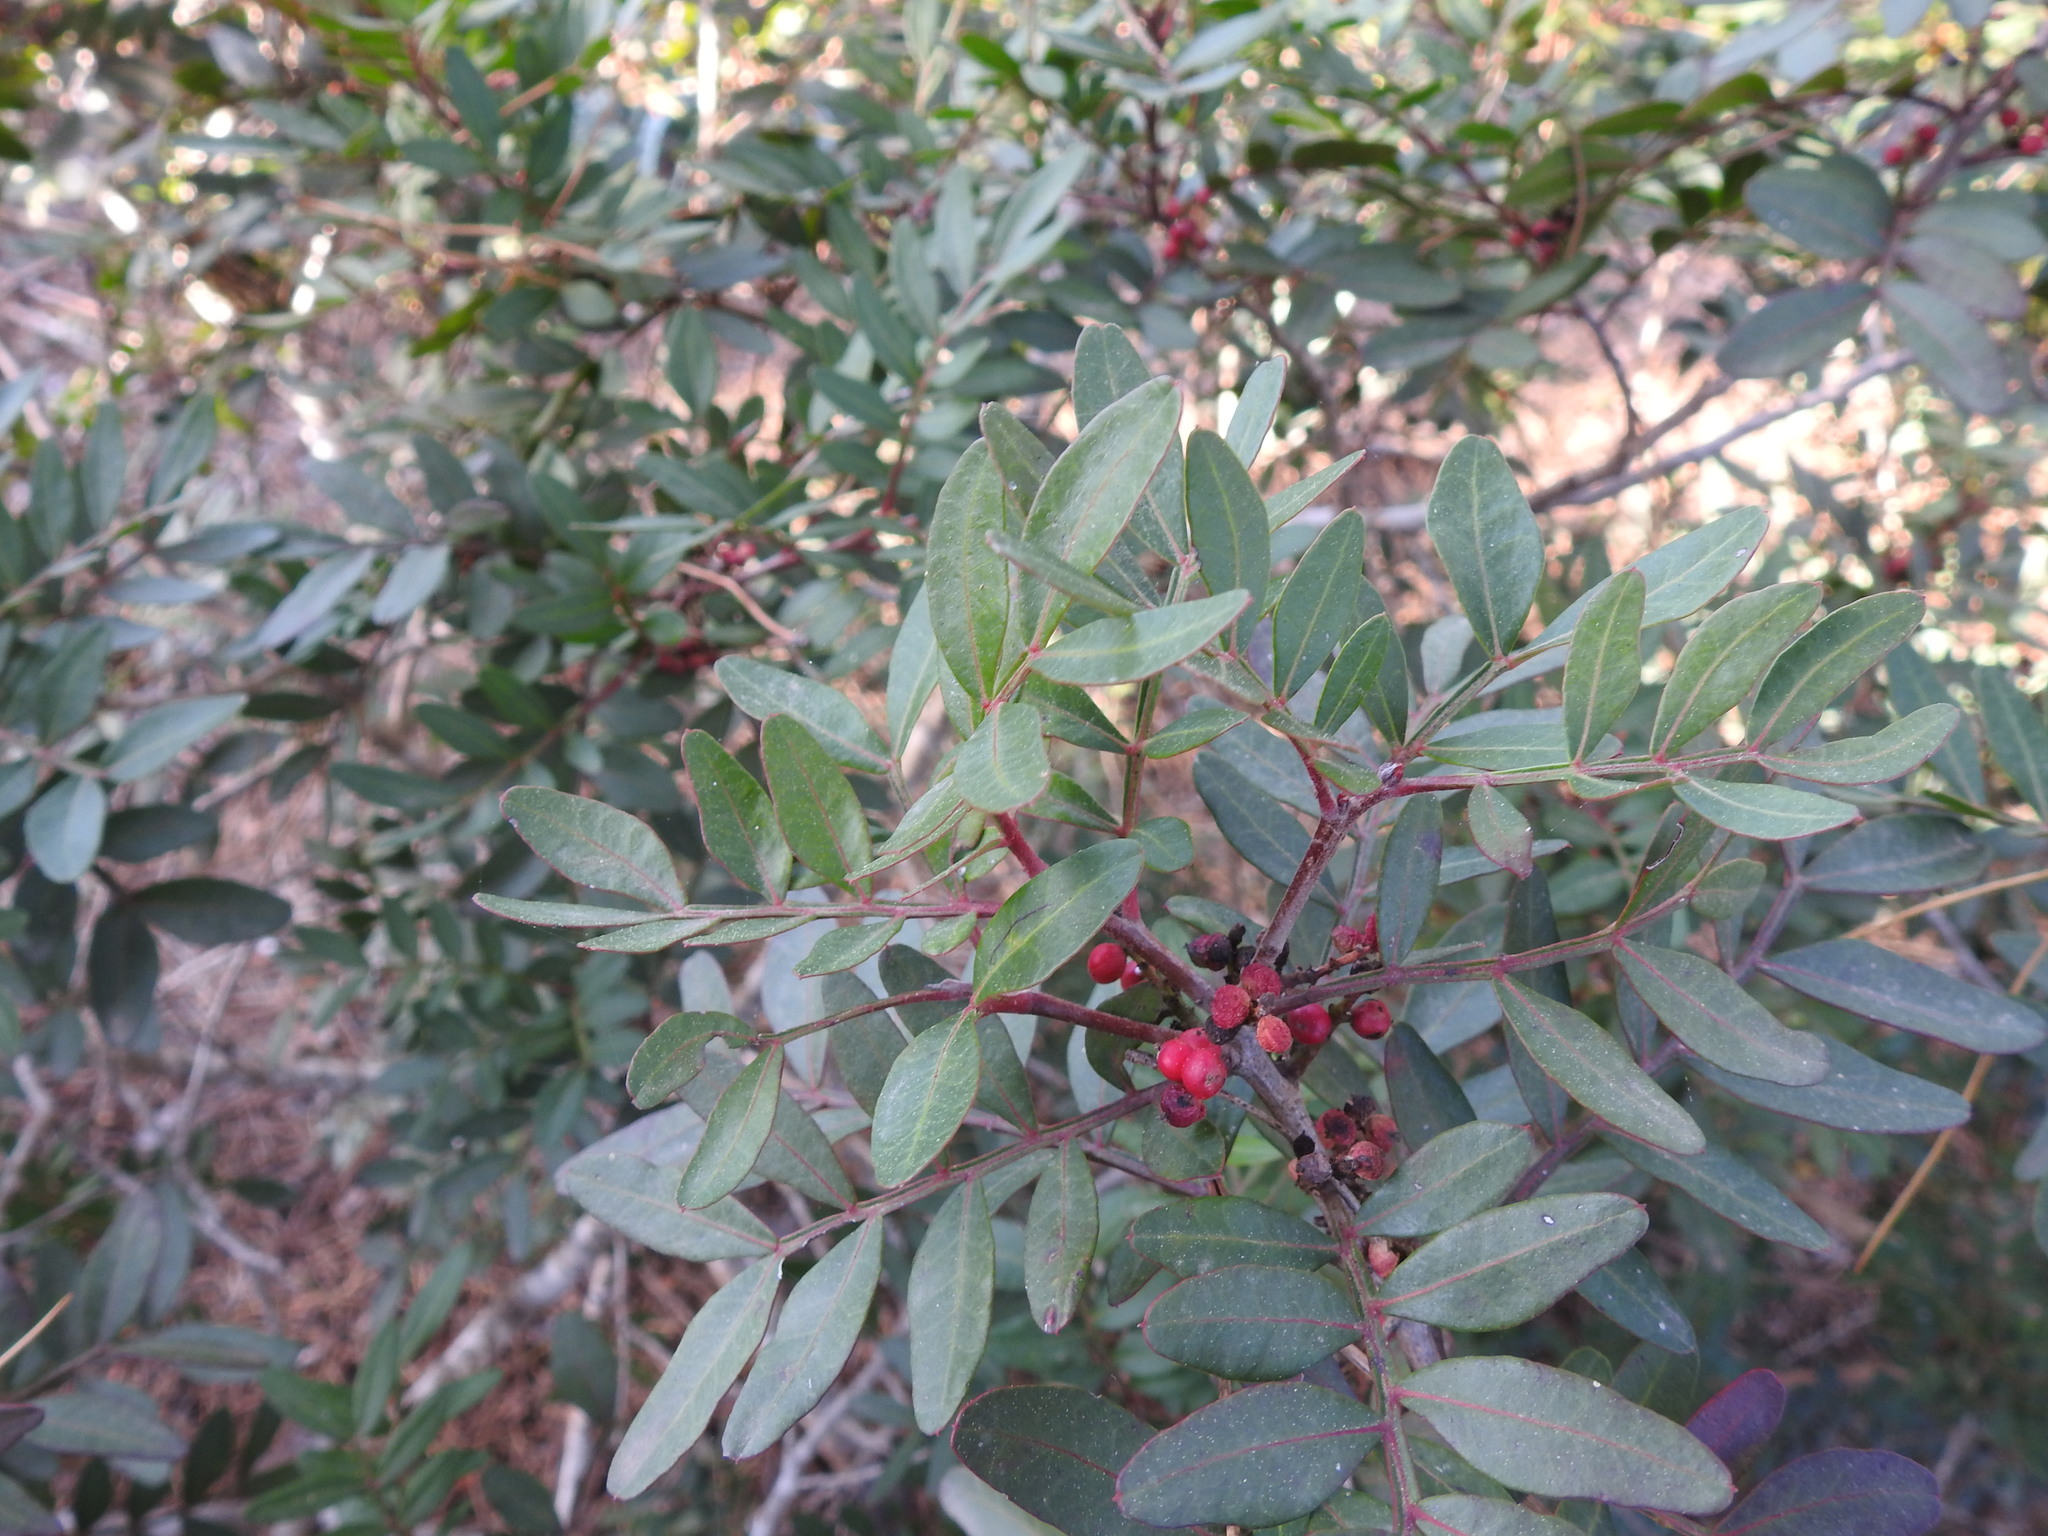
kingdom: Plantae
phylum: Tracheophyta
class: Magnoliopsida
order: Sapindales
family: Anacardiaceae
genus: Pistacia
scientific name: Pistacia lentiscus
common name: Lentisk
